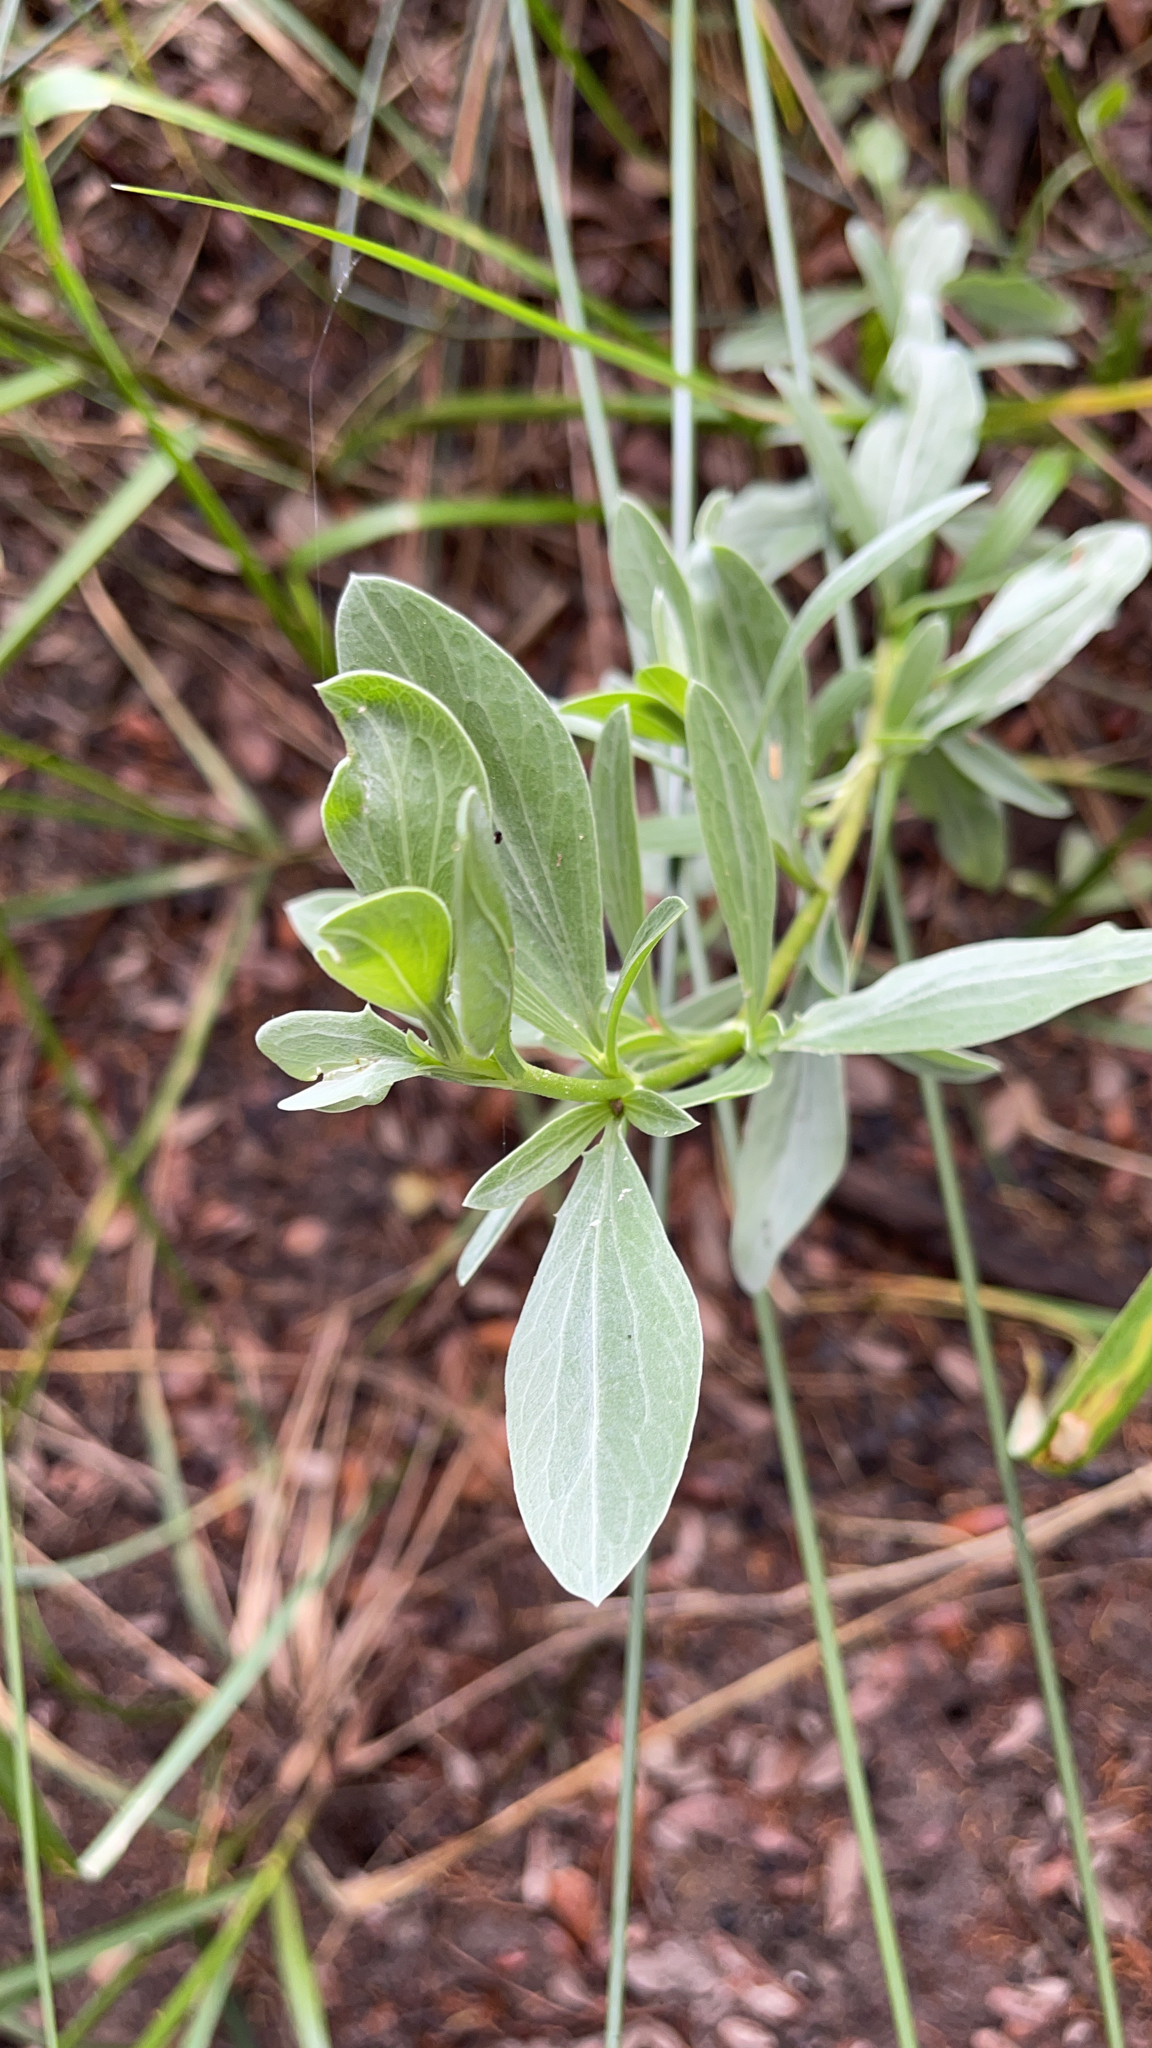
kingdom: Plantae
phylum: Tracheophyta
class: Magnoliopsida
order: Asterales
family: Asteraceae
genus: Borrichia
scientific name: Borrichia frutescens
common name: Sea oxeye
